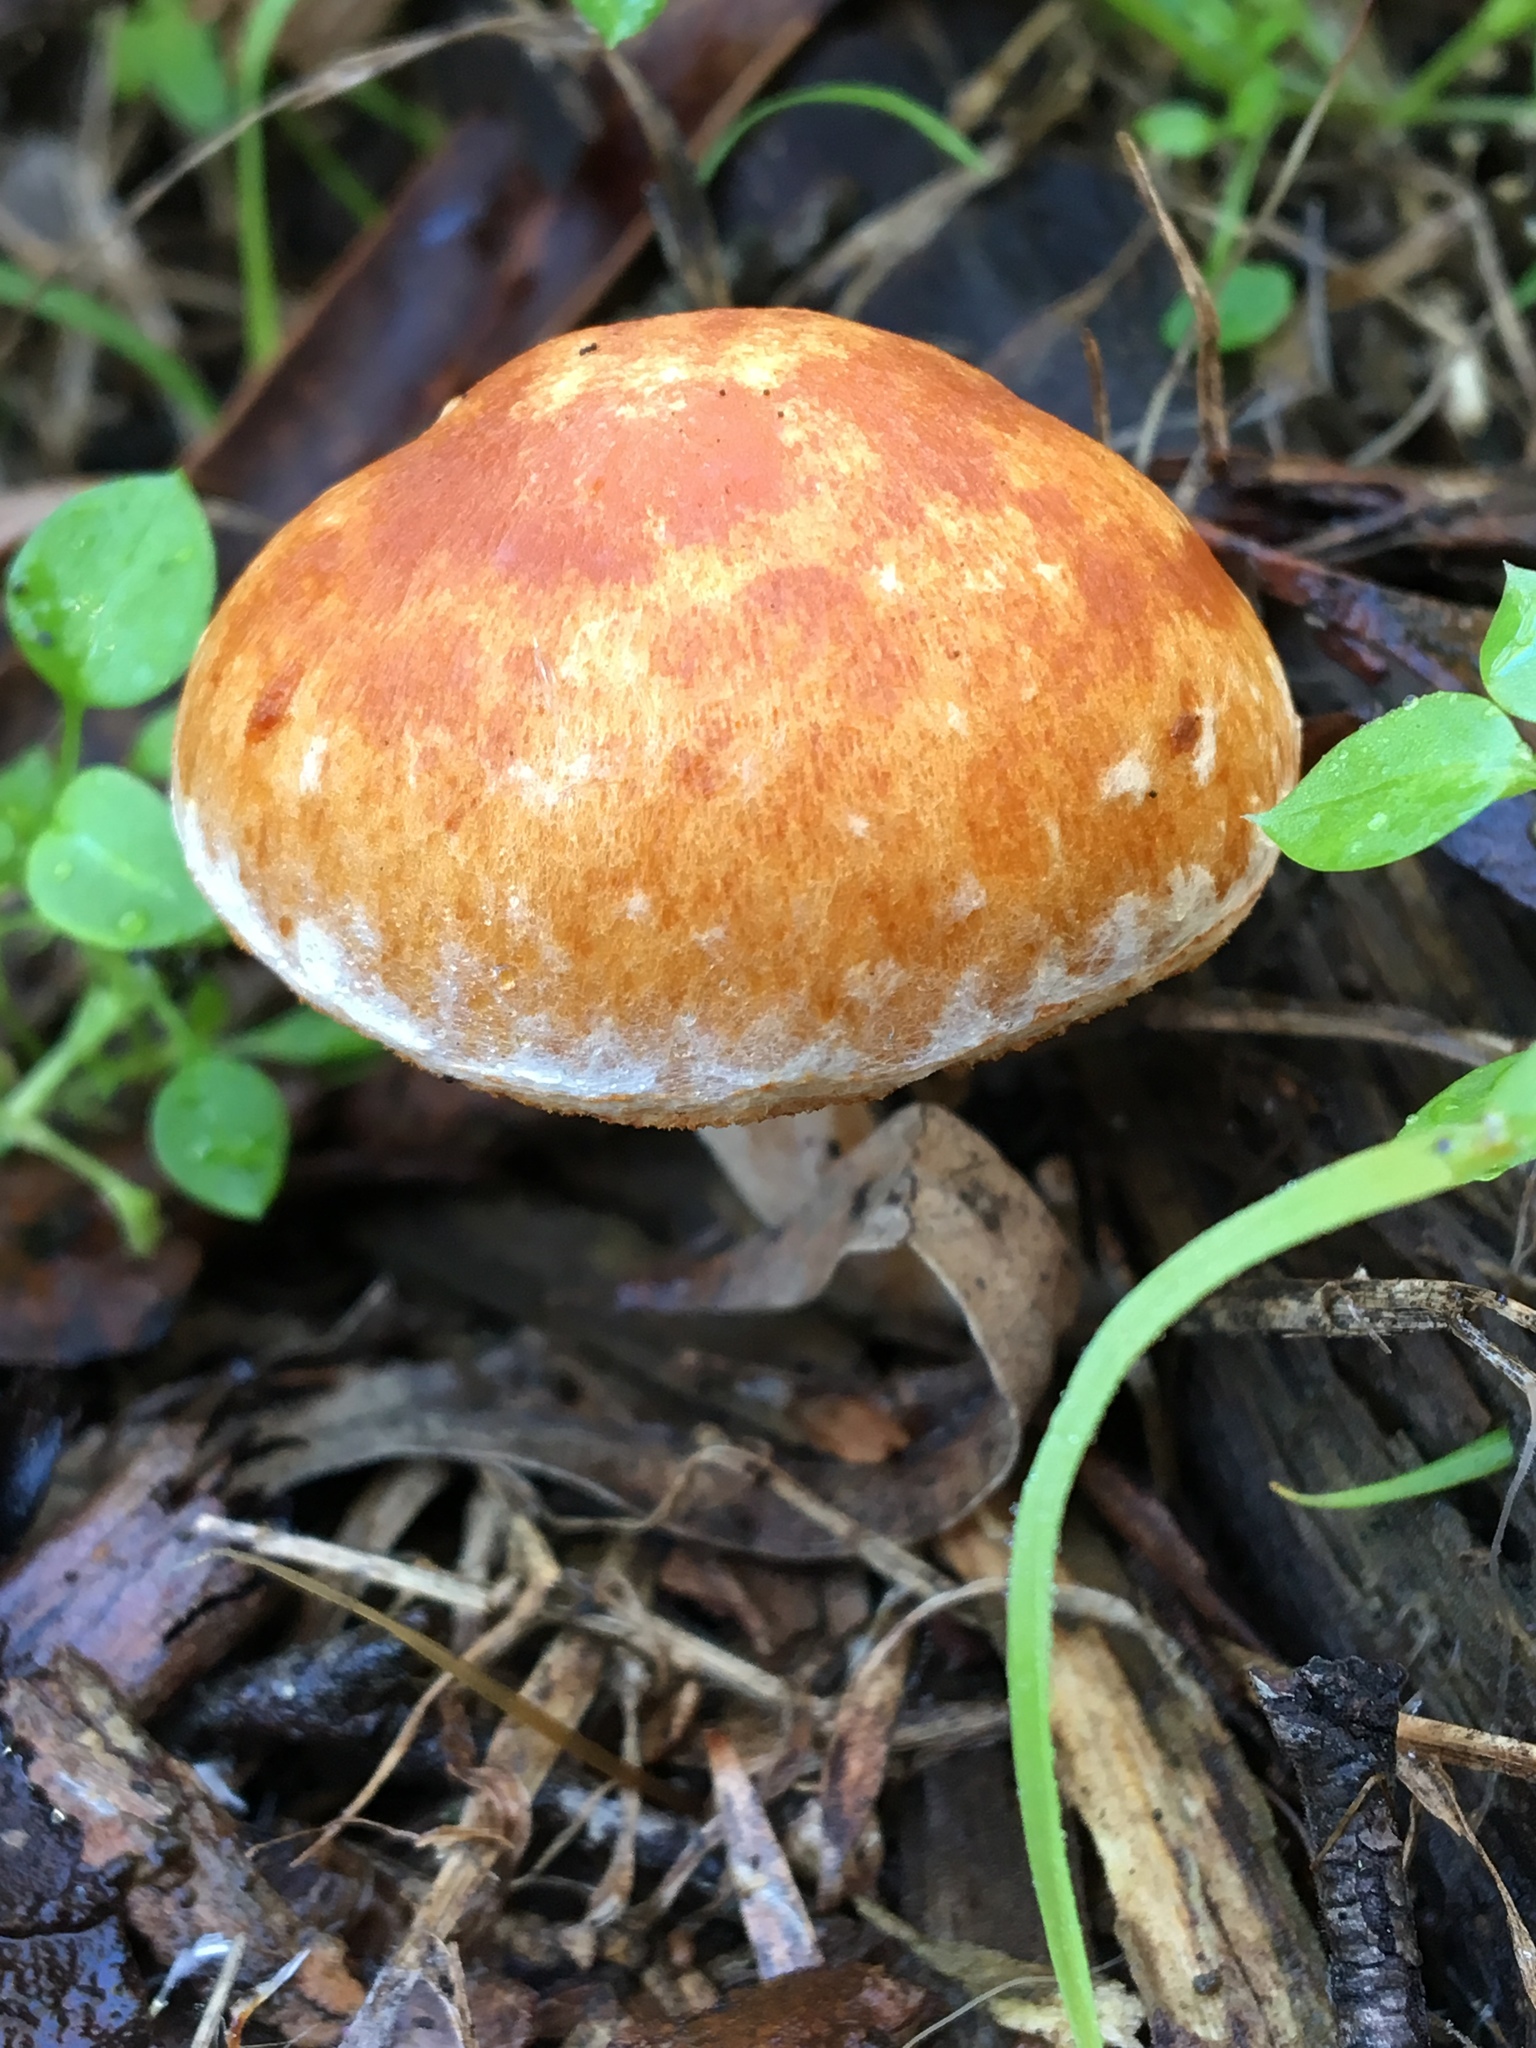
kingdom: Fungi
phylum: Basidiomycota
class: Agaricomycetes
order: Agaricales
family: Hymenogastraceae
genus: Gymnopilus
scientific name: Gymnopilus allantopus
